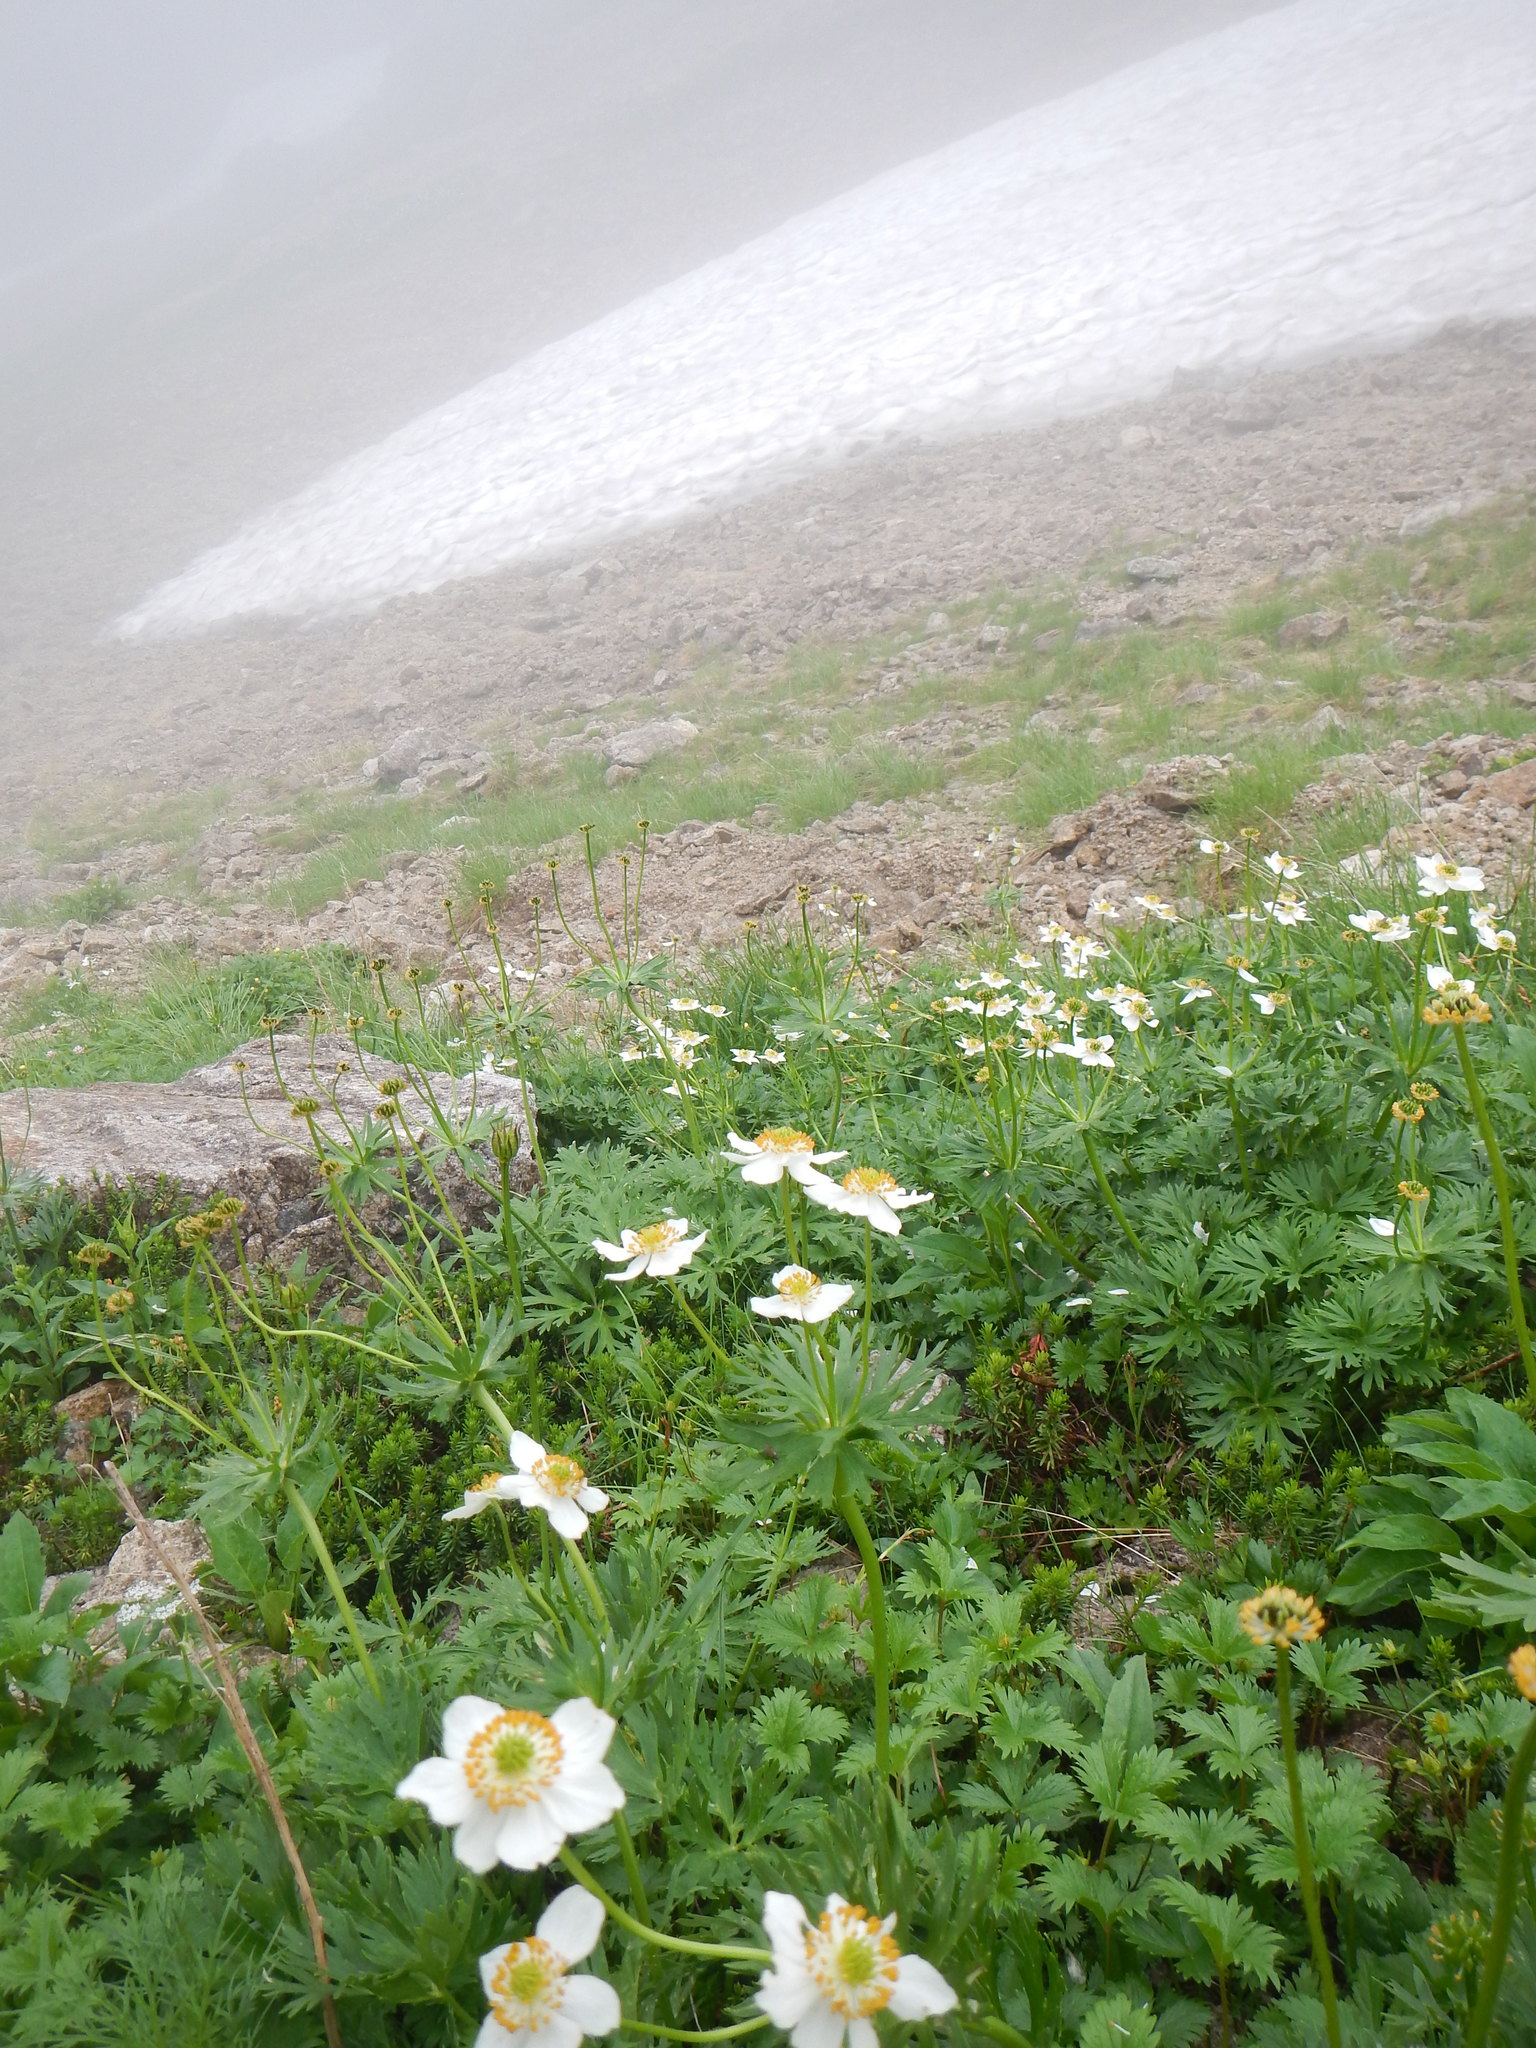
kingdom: Plantae
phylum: Tracheophyta
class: Magnoliopsida
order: Ranunculales
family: Ranunculaceae
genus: Anemonastrum
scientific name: Anemonastrum narcissiflorum
